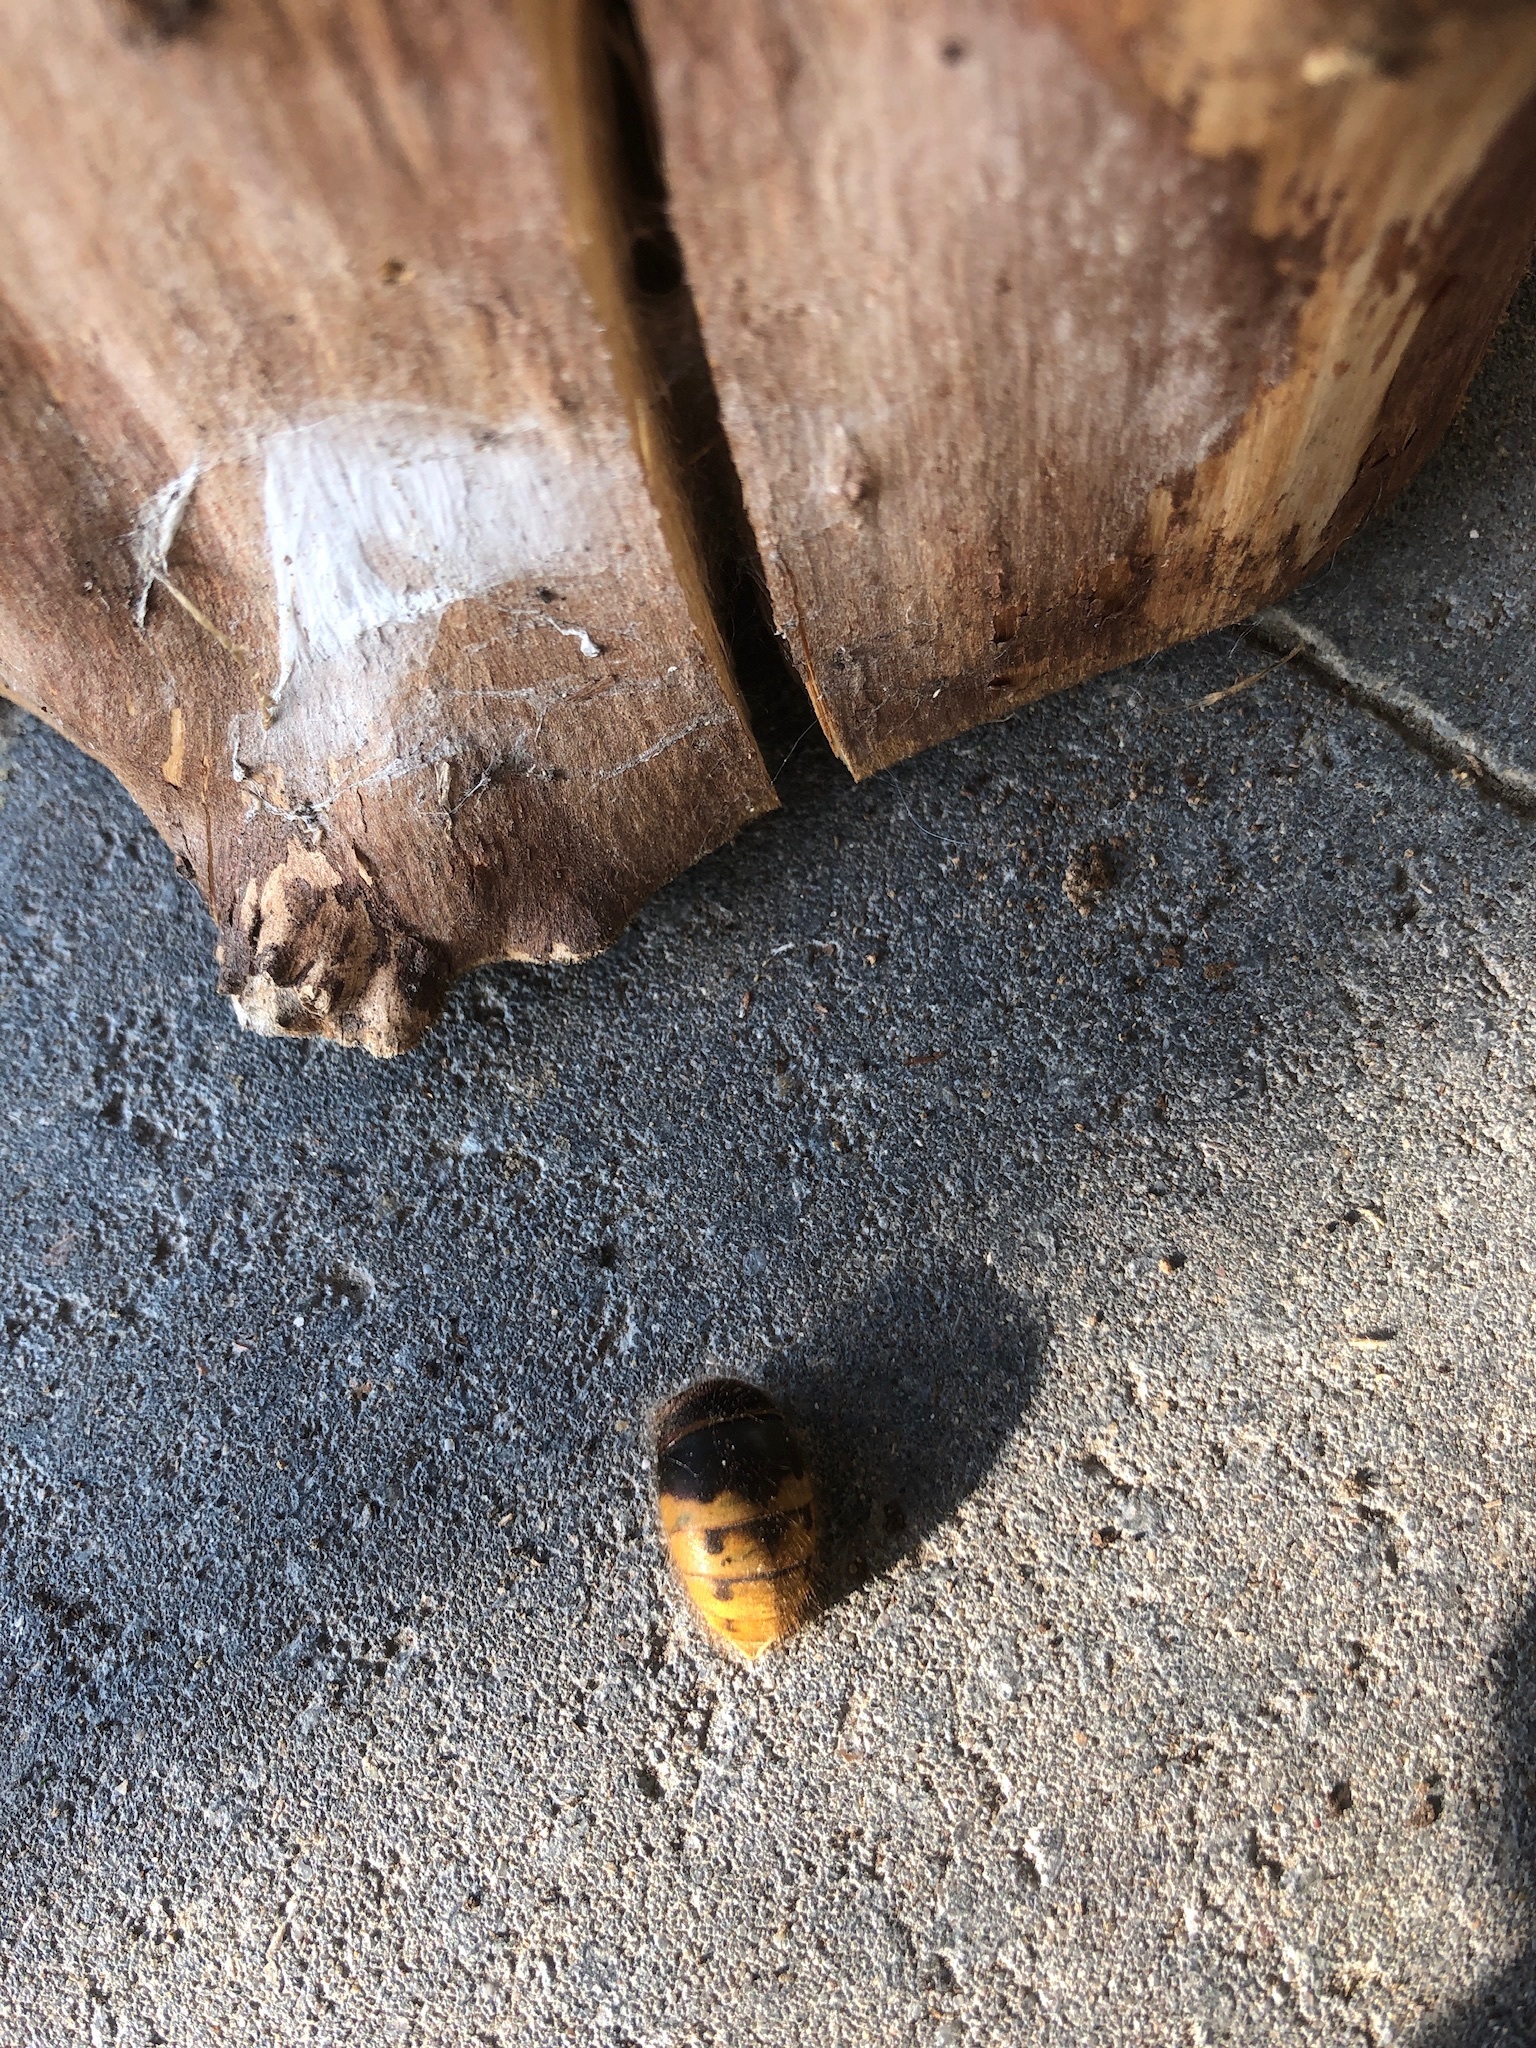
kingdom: Animalia
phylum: Arthropoda
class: Insecta
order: Hymenoptera
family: Vespidae
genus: Vespa
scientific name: Vespa crabro
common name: Hornet
